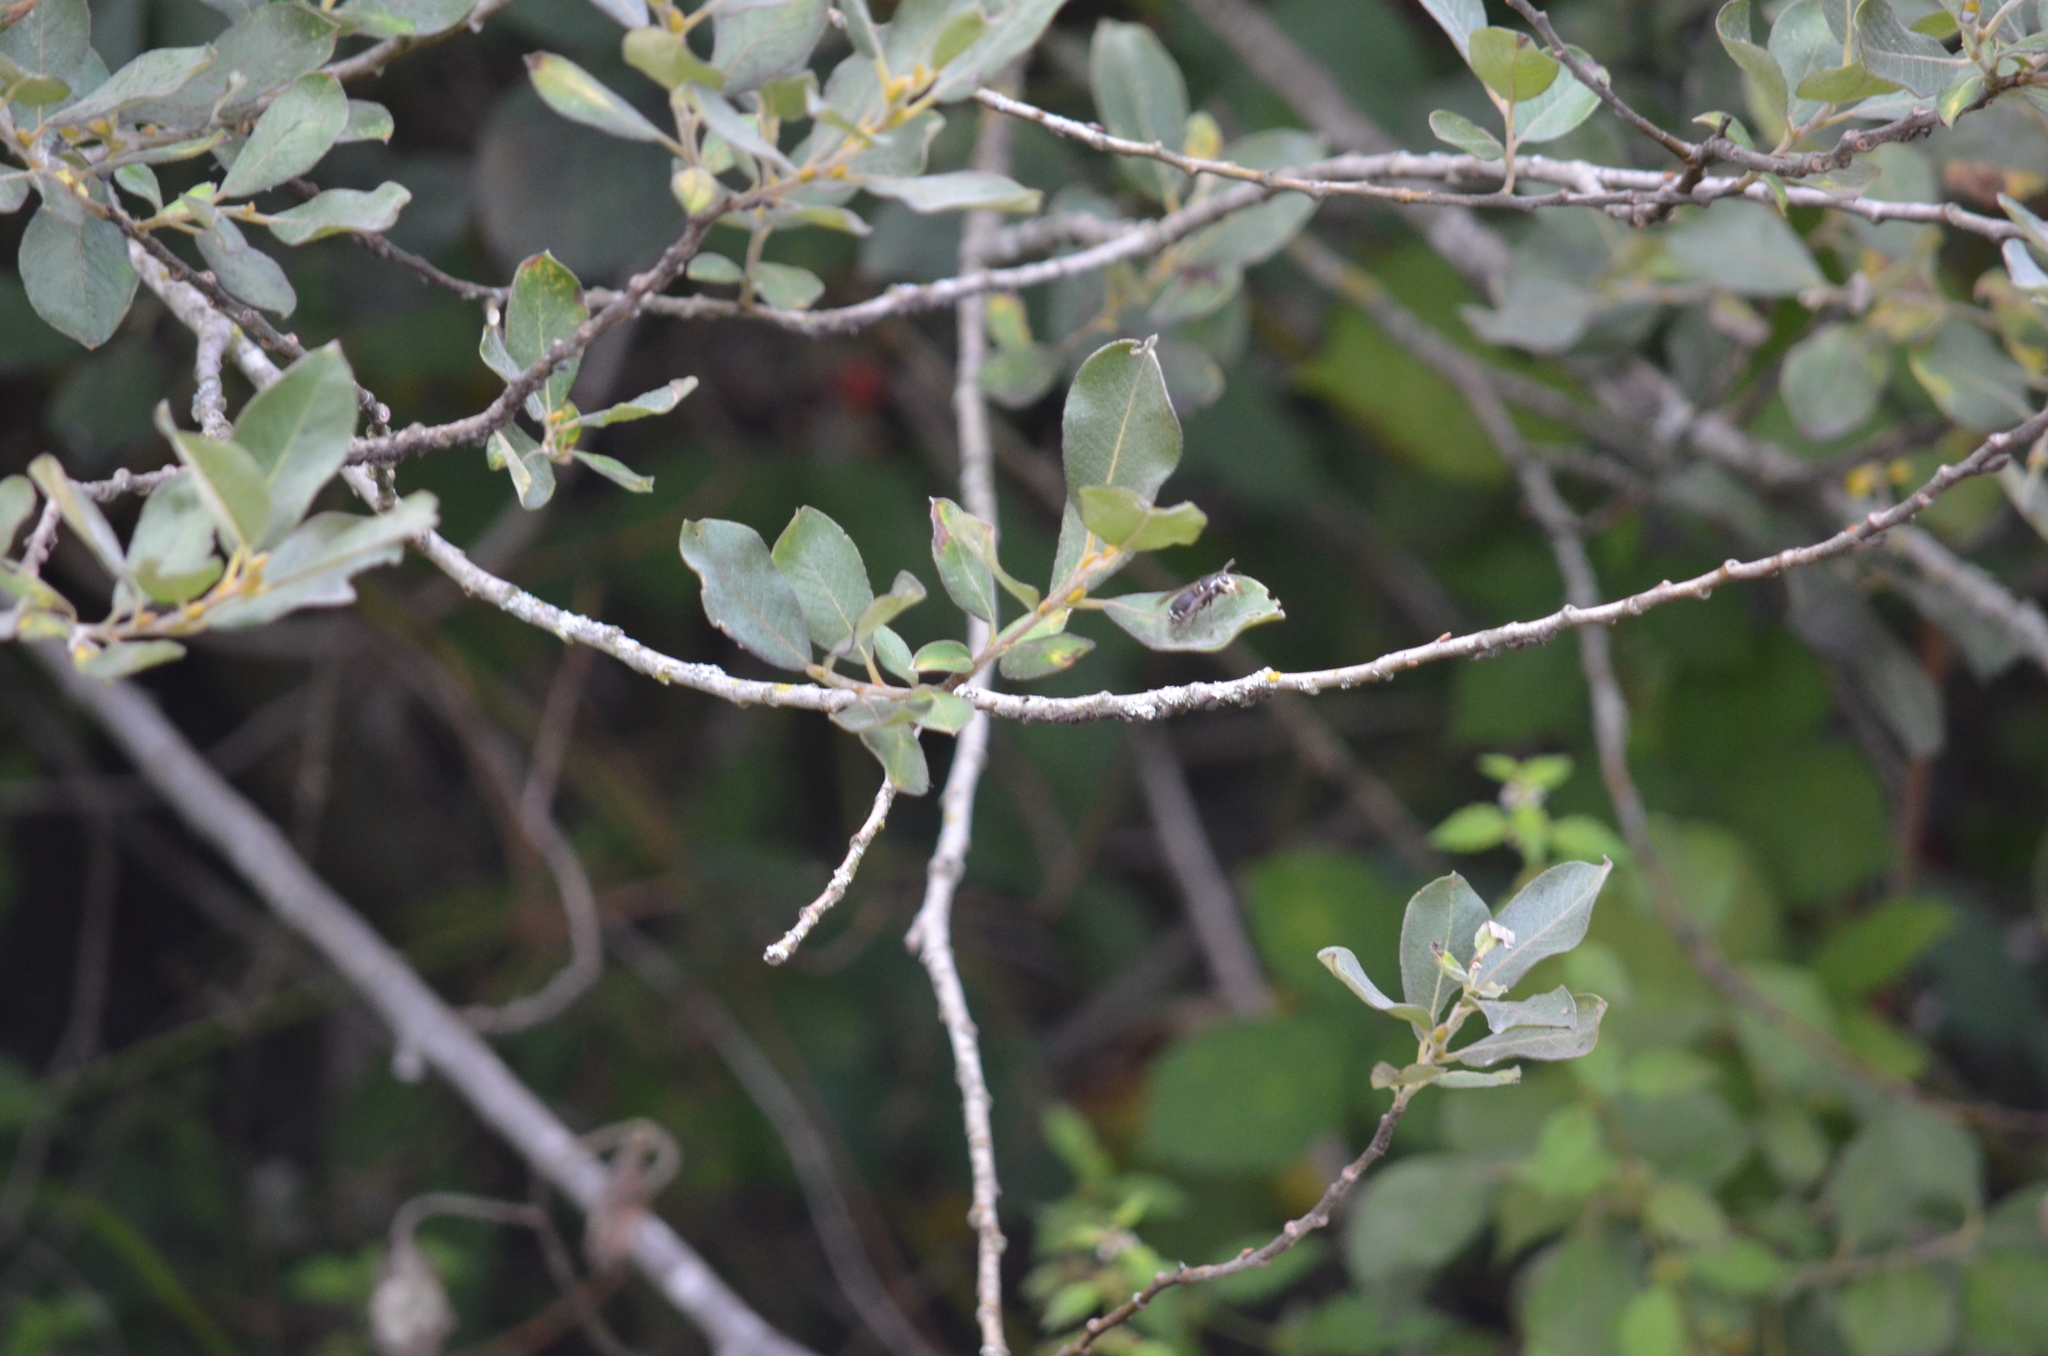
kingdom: Animalia
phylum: Arthropoda
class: Insecta
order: Hymenoptera
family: Vespidae
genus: Dolichovespula
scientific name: Dolichovespula maculata
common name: Bald-faced hornet
